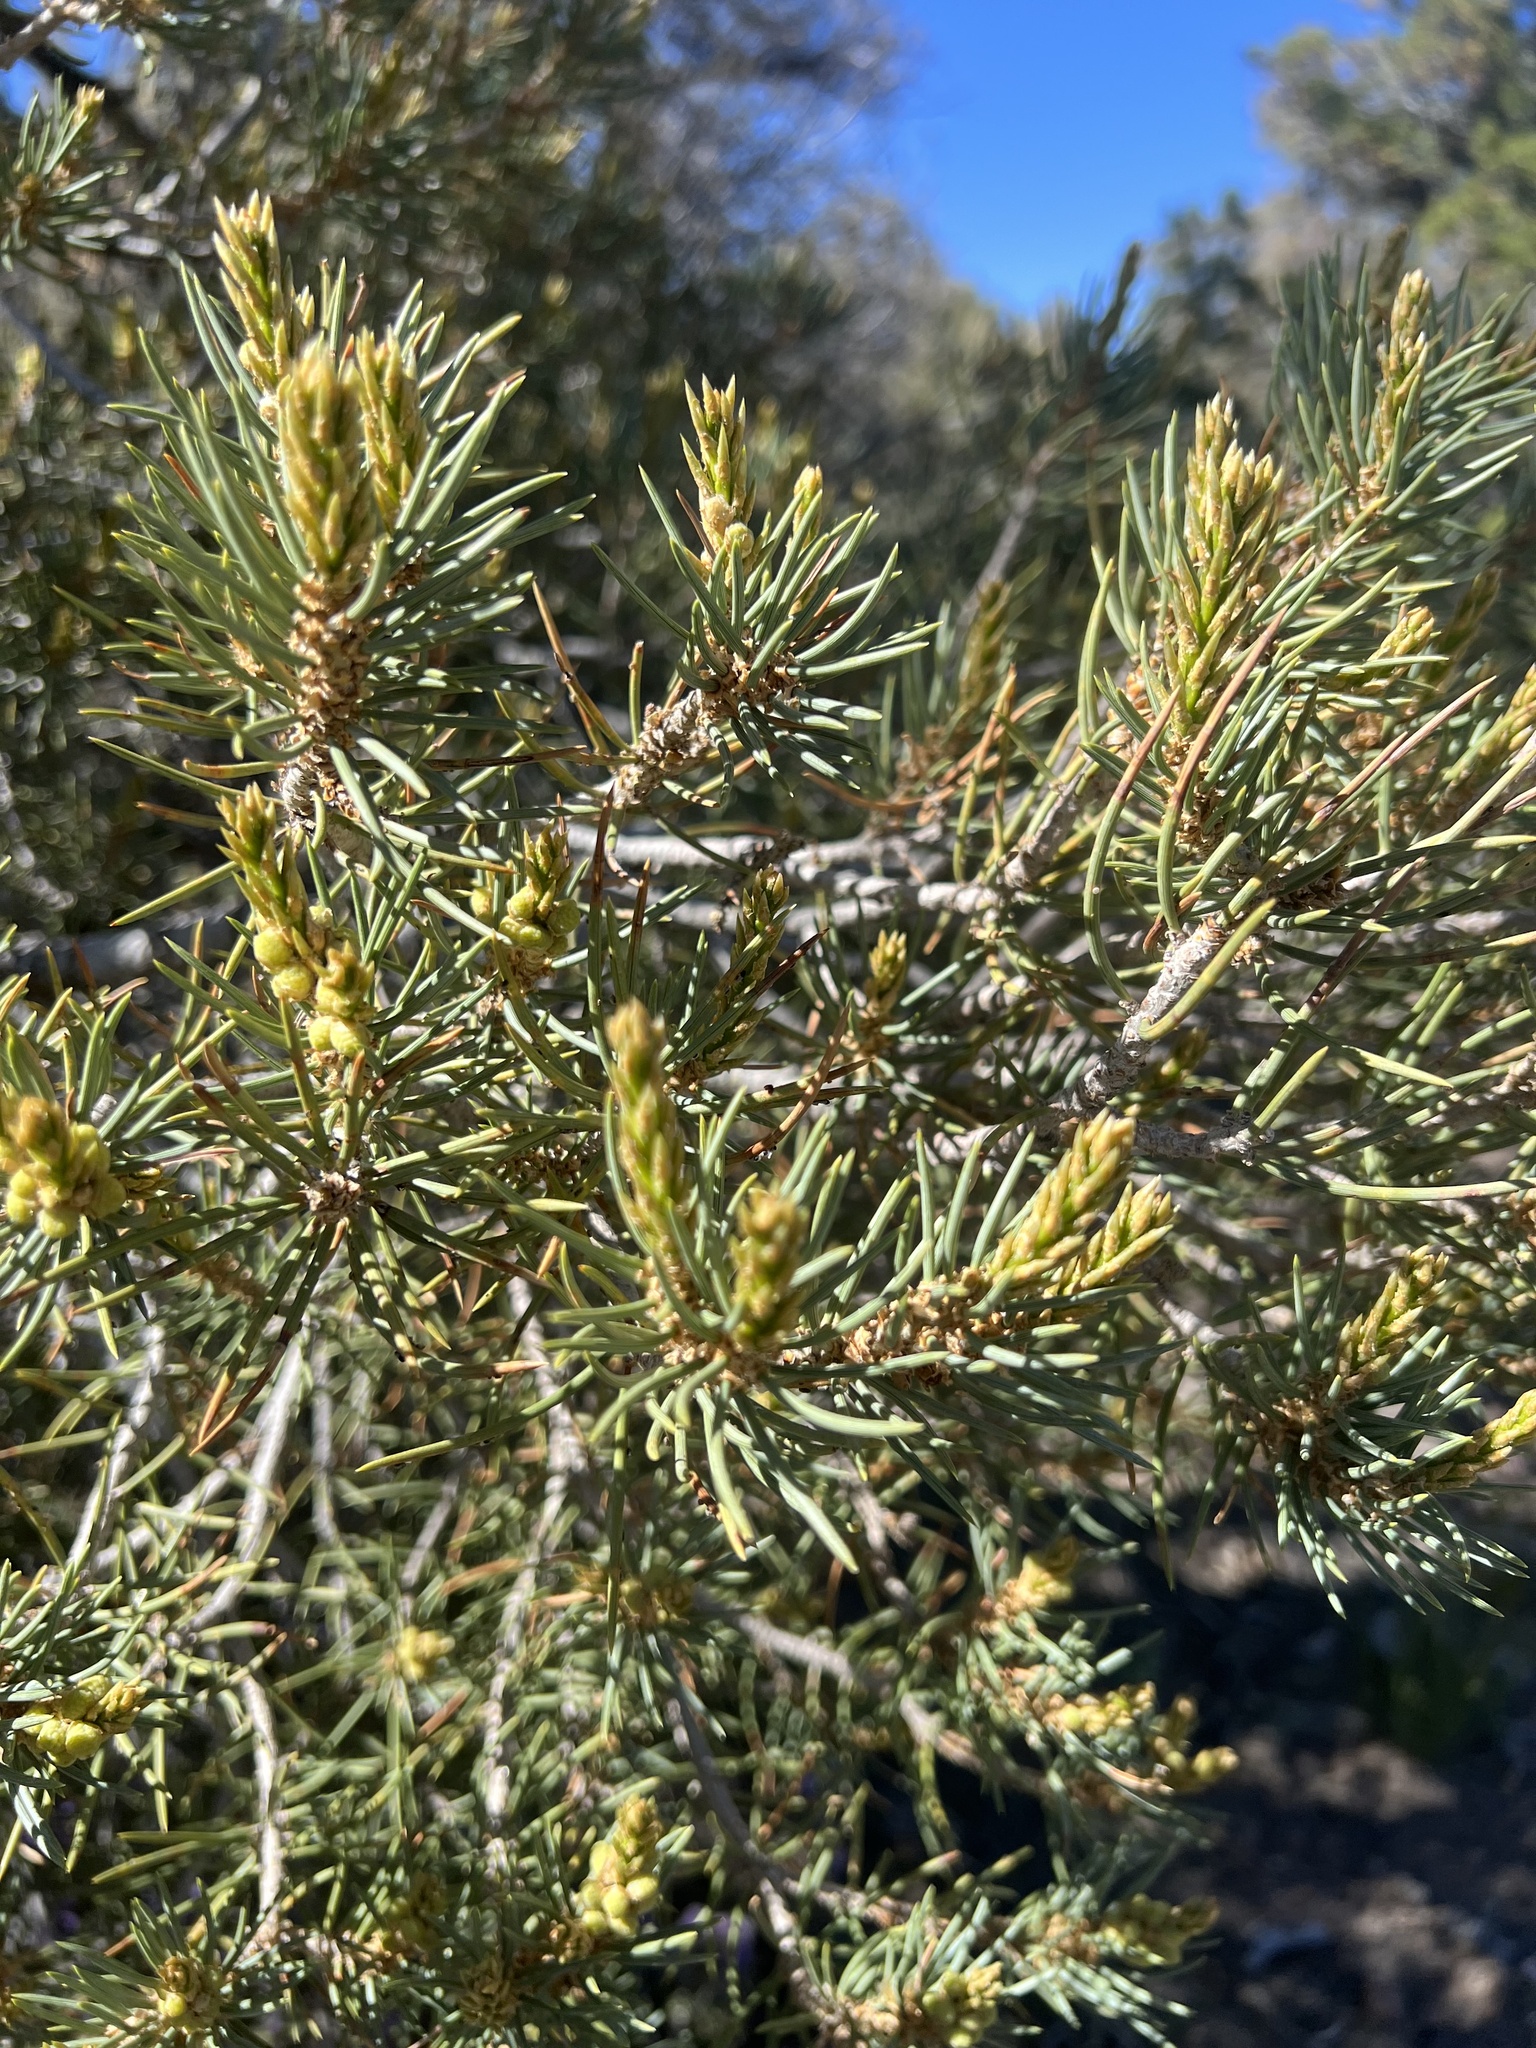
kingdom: Plantae
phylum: Tracheophyta
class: Pinopsida
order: Pinales
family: Pinaceae
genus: Pinus
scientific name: Pinus monophylla
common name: One-leaved nut pine
